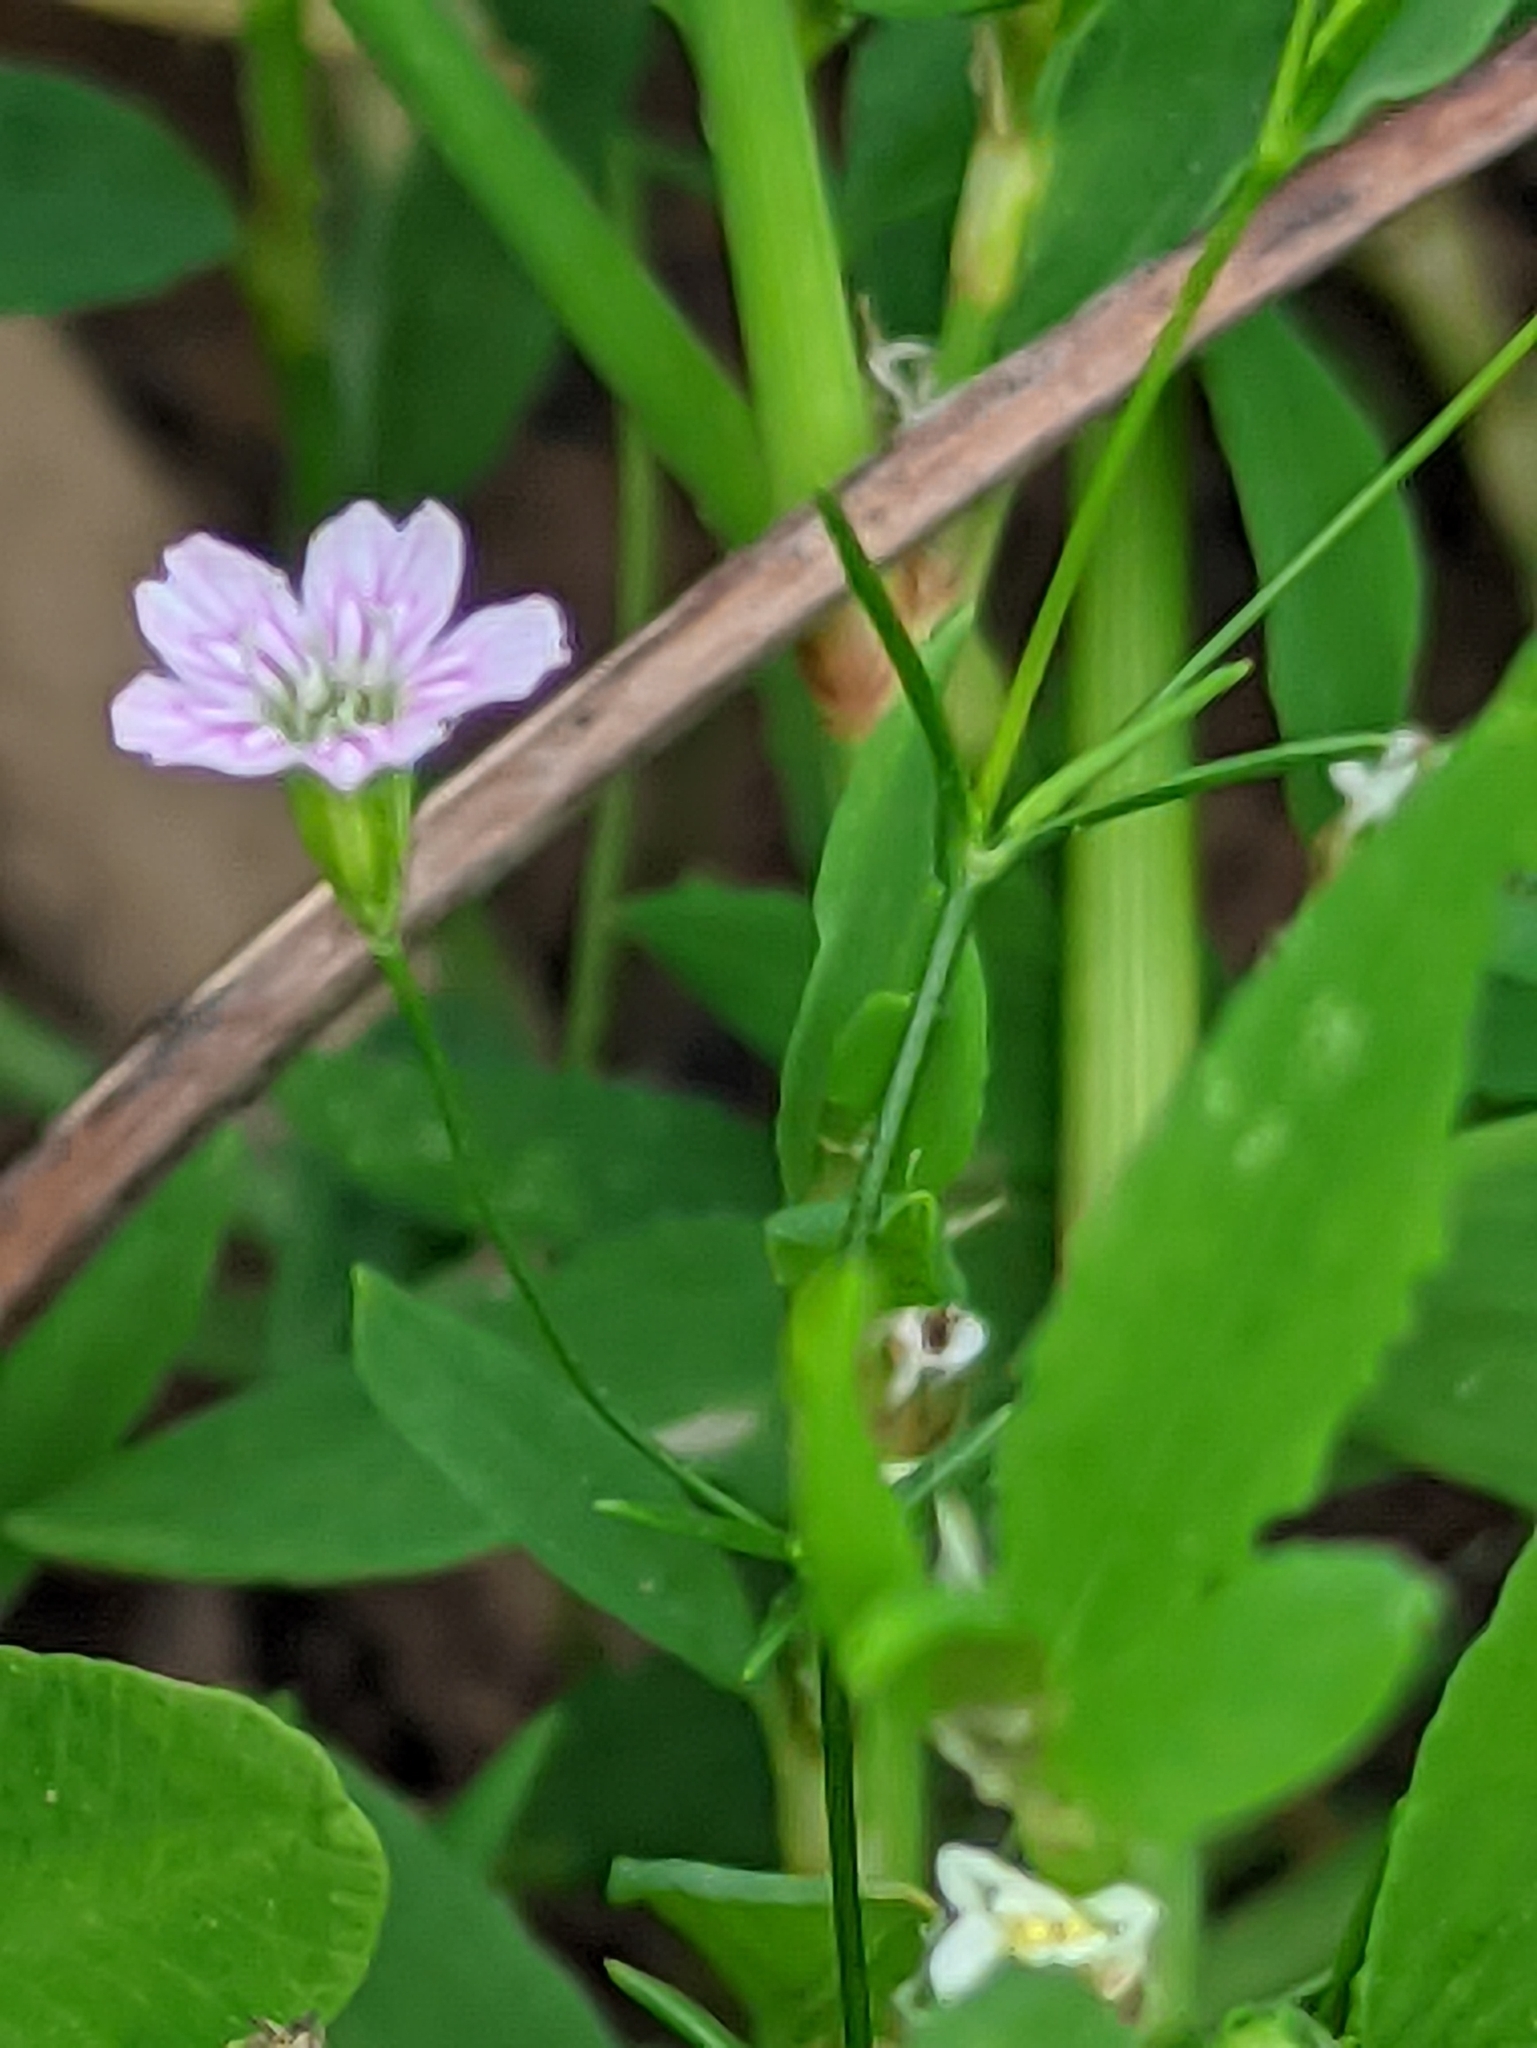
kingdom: Plantae
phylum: Tracheophyta
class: Magnoliopsida
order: Caryophyllales
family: Caryophyllaceae
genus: Psammophiliella
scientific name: Psammophiliella muralis
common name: Cushion baby's-breath
